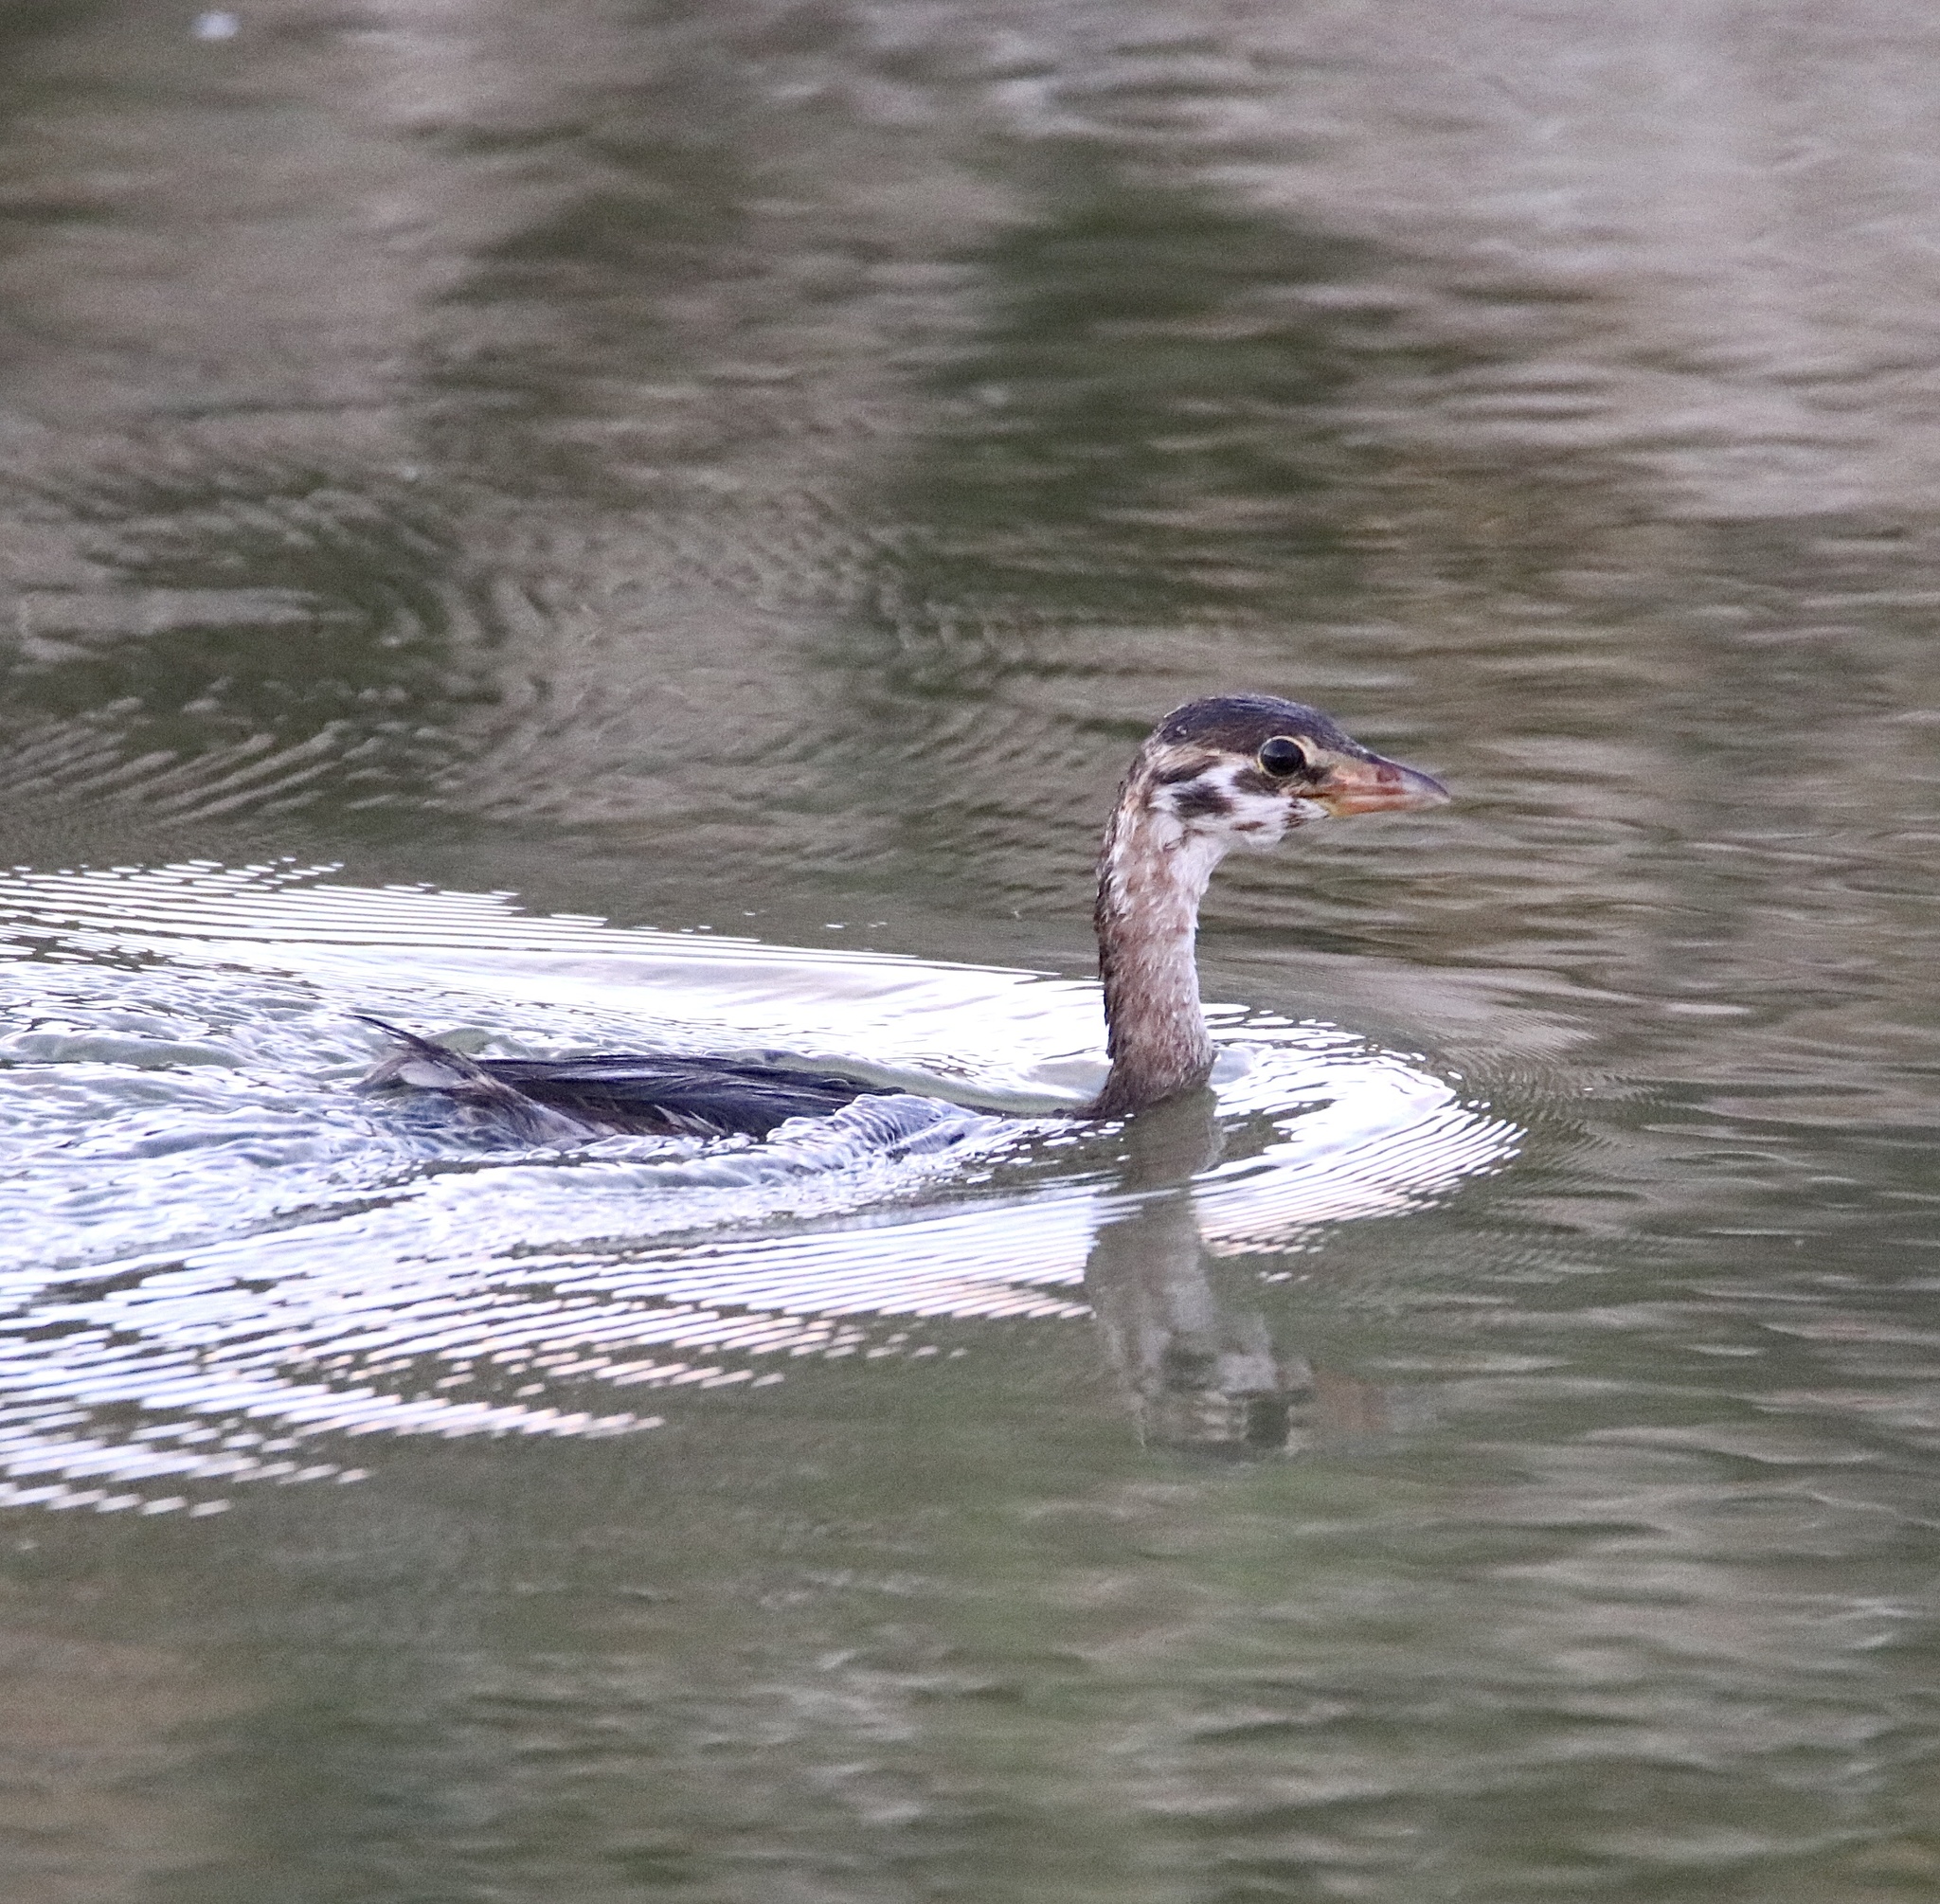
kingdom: Animalia
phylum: Chordata
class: Aves
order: Podicipediformes
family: Podicipedidae
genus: Podilymbus
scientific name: Podilymbus podiceps
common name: Pied-billed grebe
